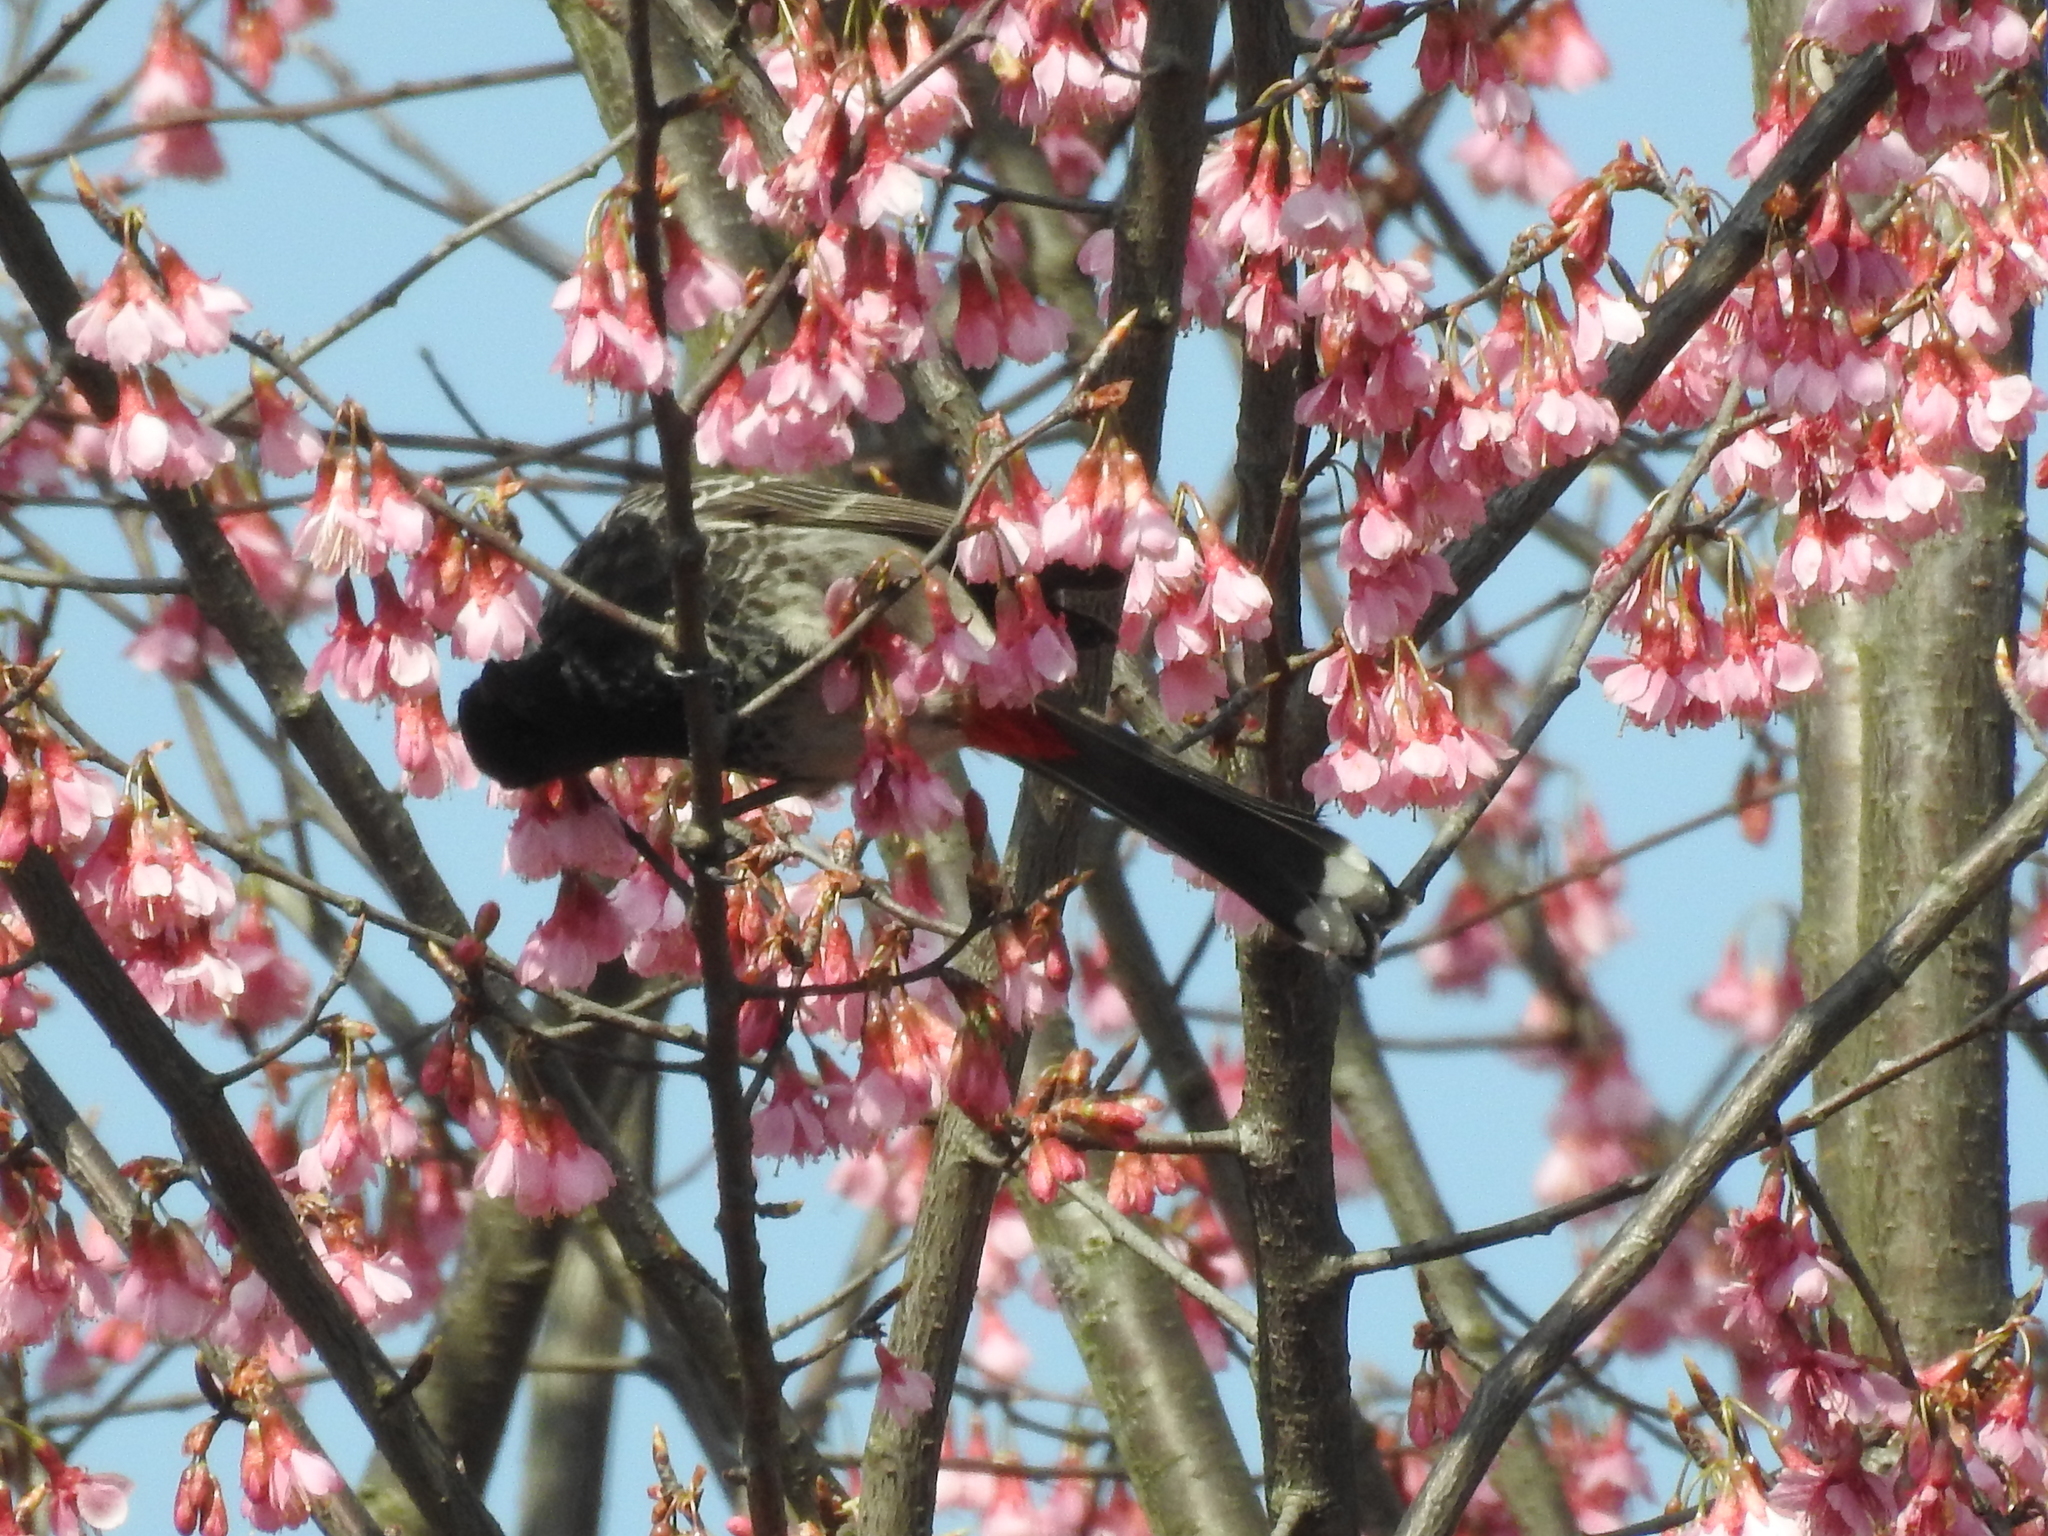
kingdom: Animalia
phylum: Chordata
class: Aves
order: Passeriformes
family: Pycnonotidae
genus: Pycnonotus
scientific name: Pycnonotus cafer
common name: Red-vented bulbul
